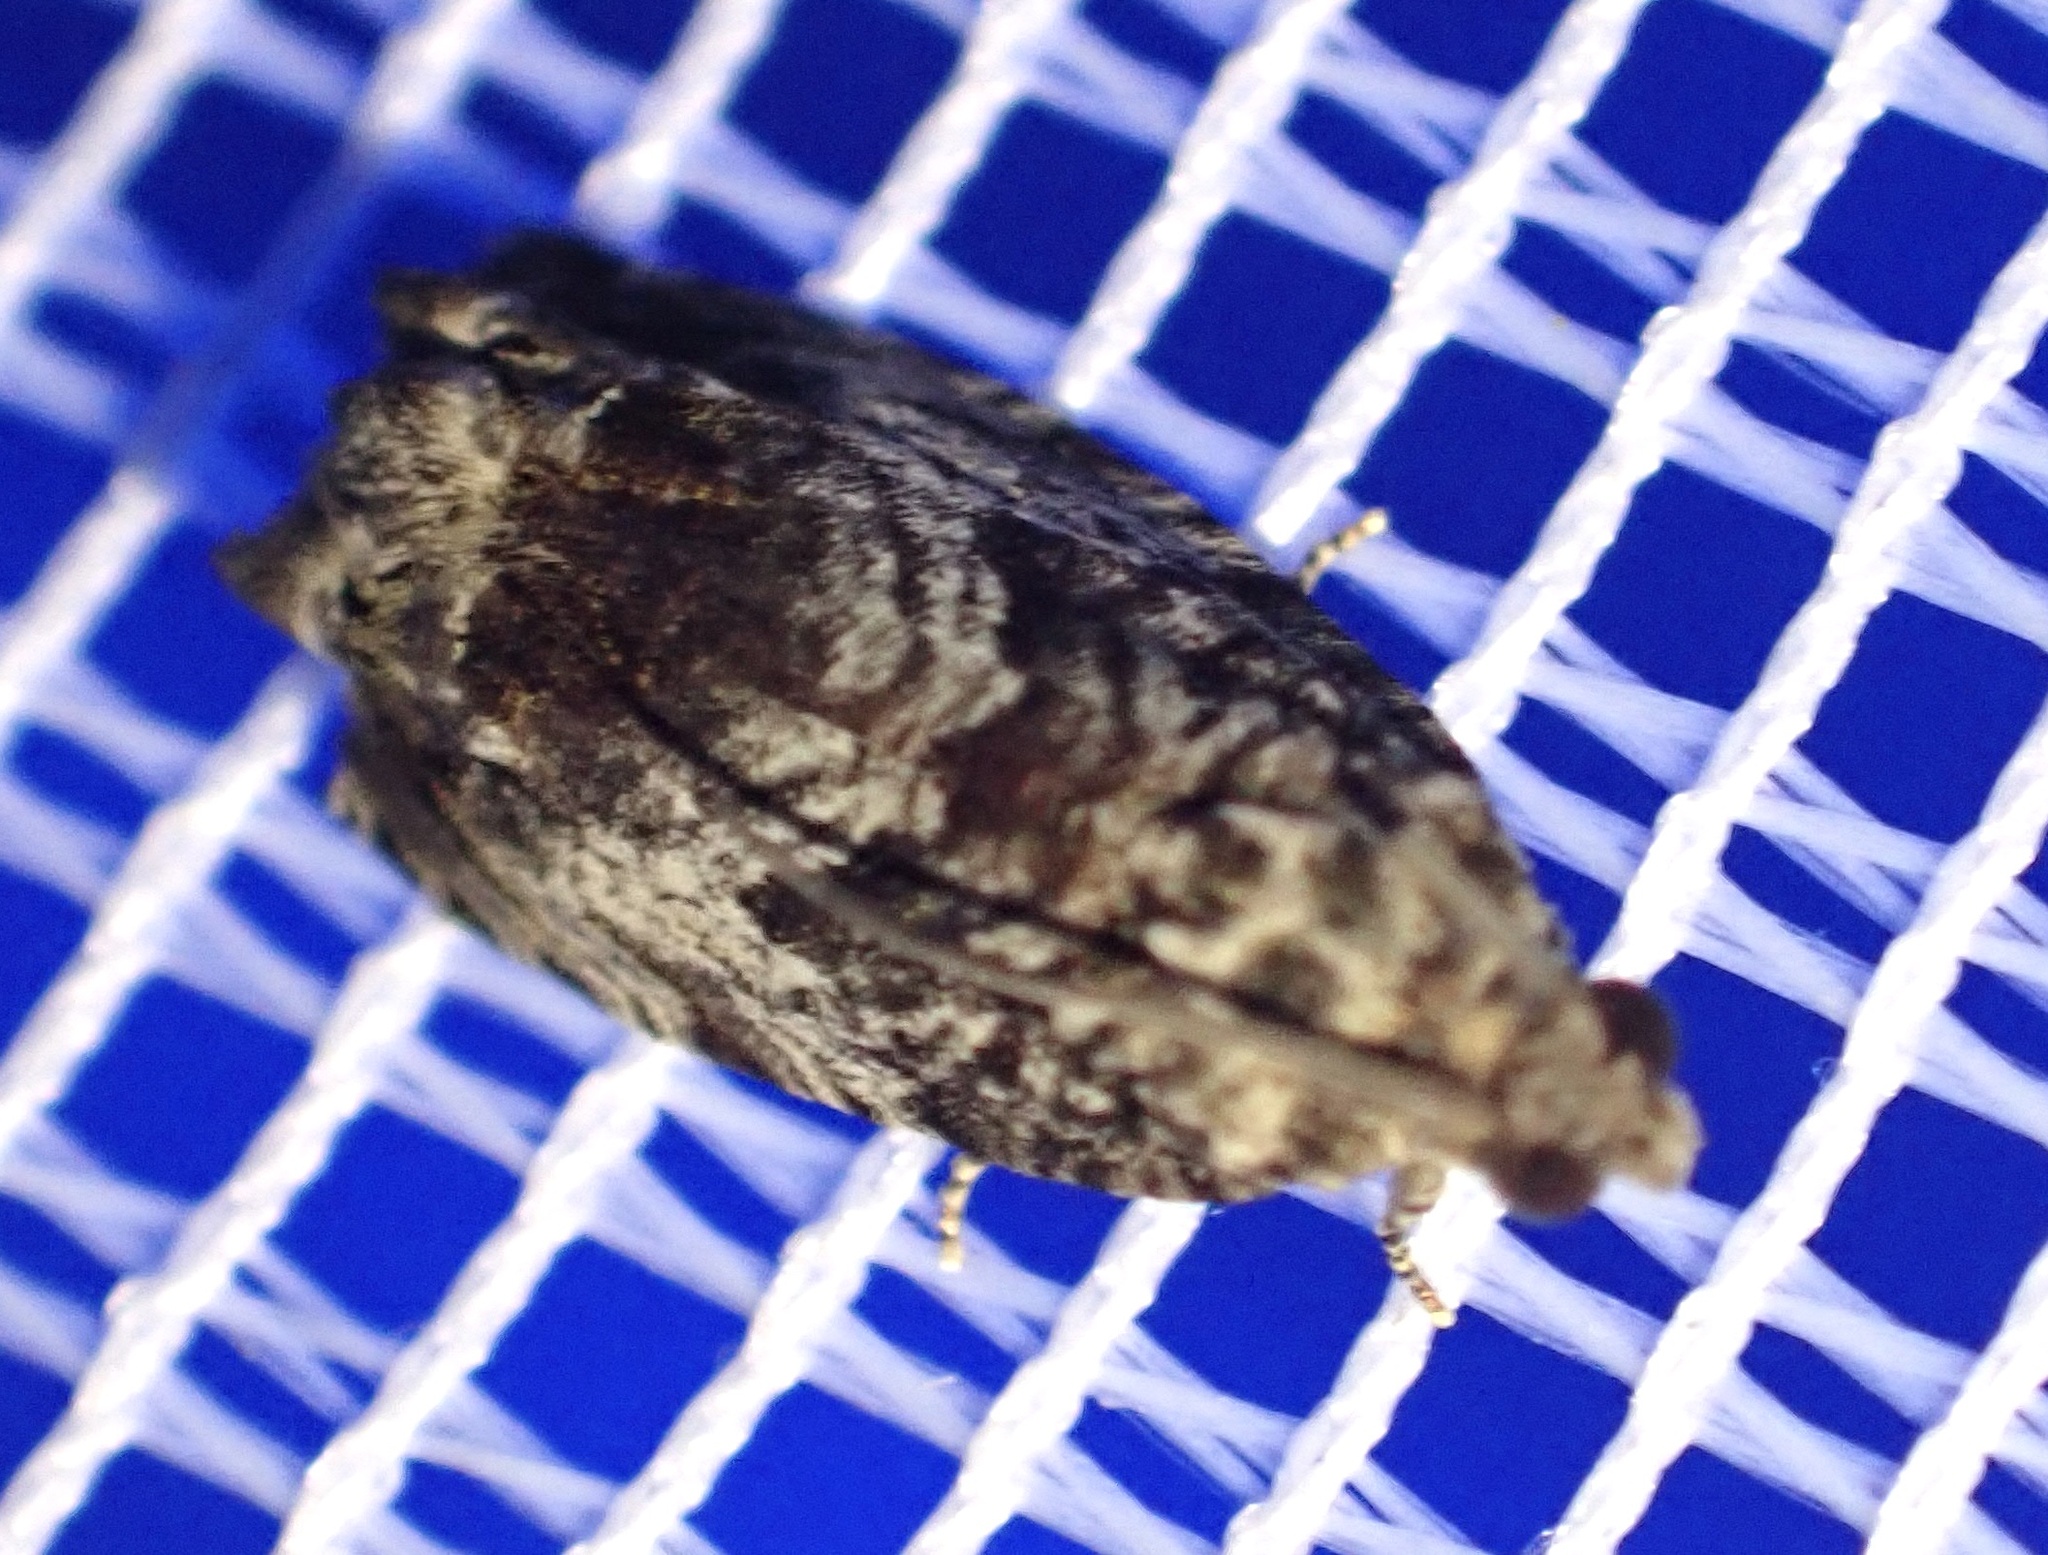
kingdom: Animalia
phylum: Arthropoda
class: Insecta
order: Lepidoptera
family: Tortricidae
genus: Cydia
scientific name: Cydia fagiglandana
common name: Large beech piercer
